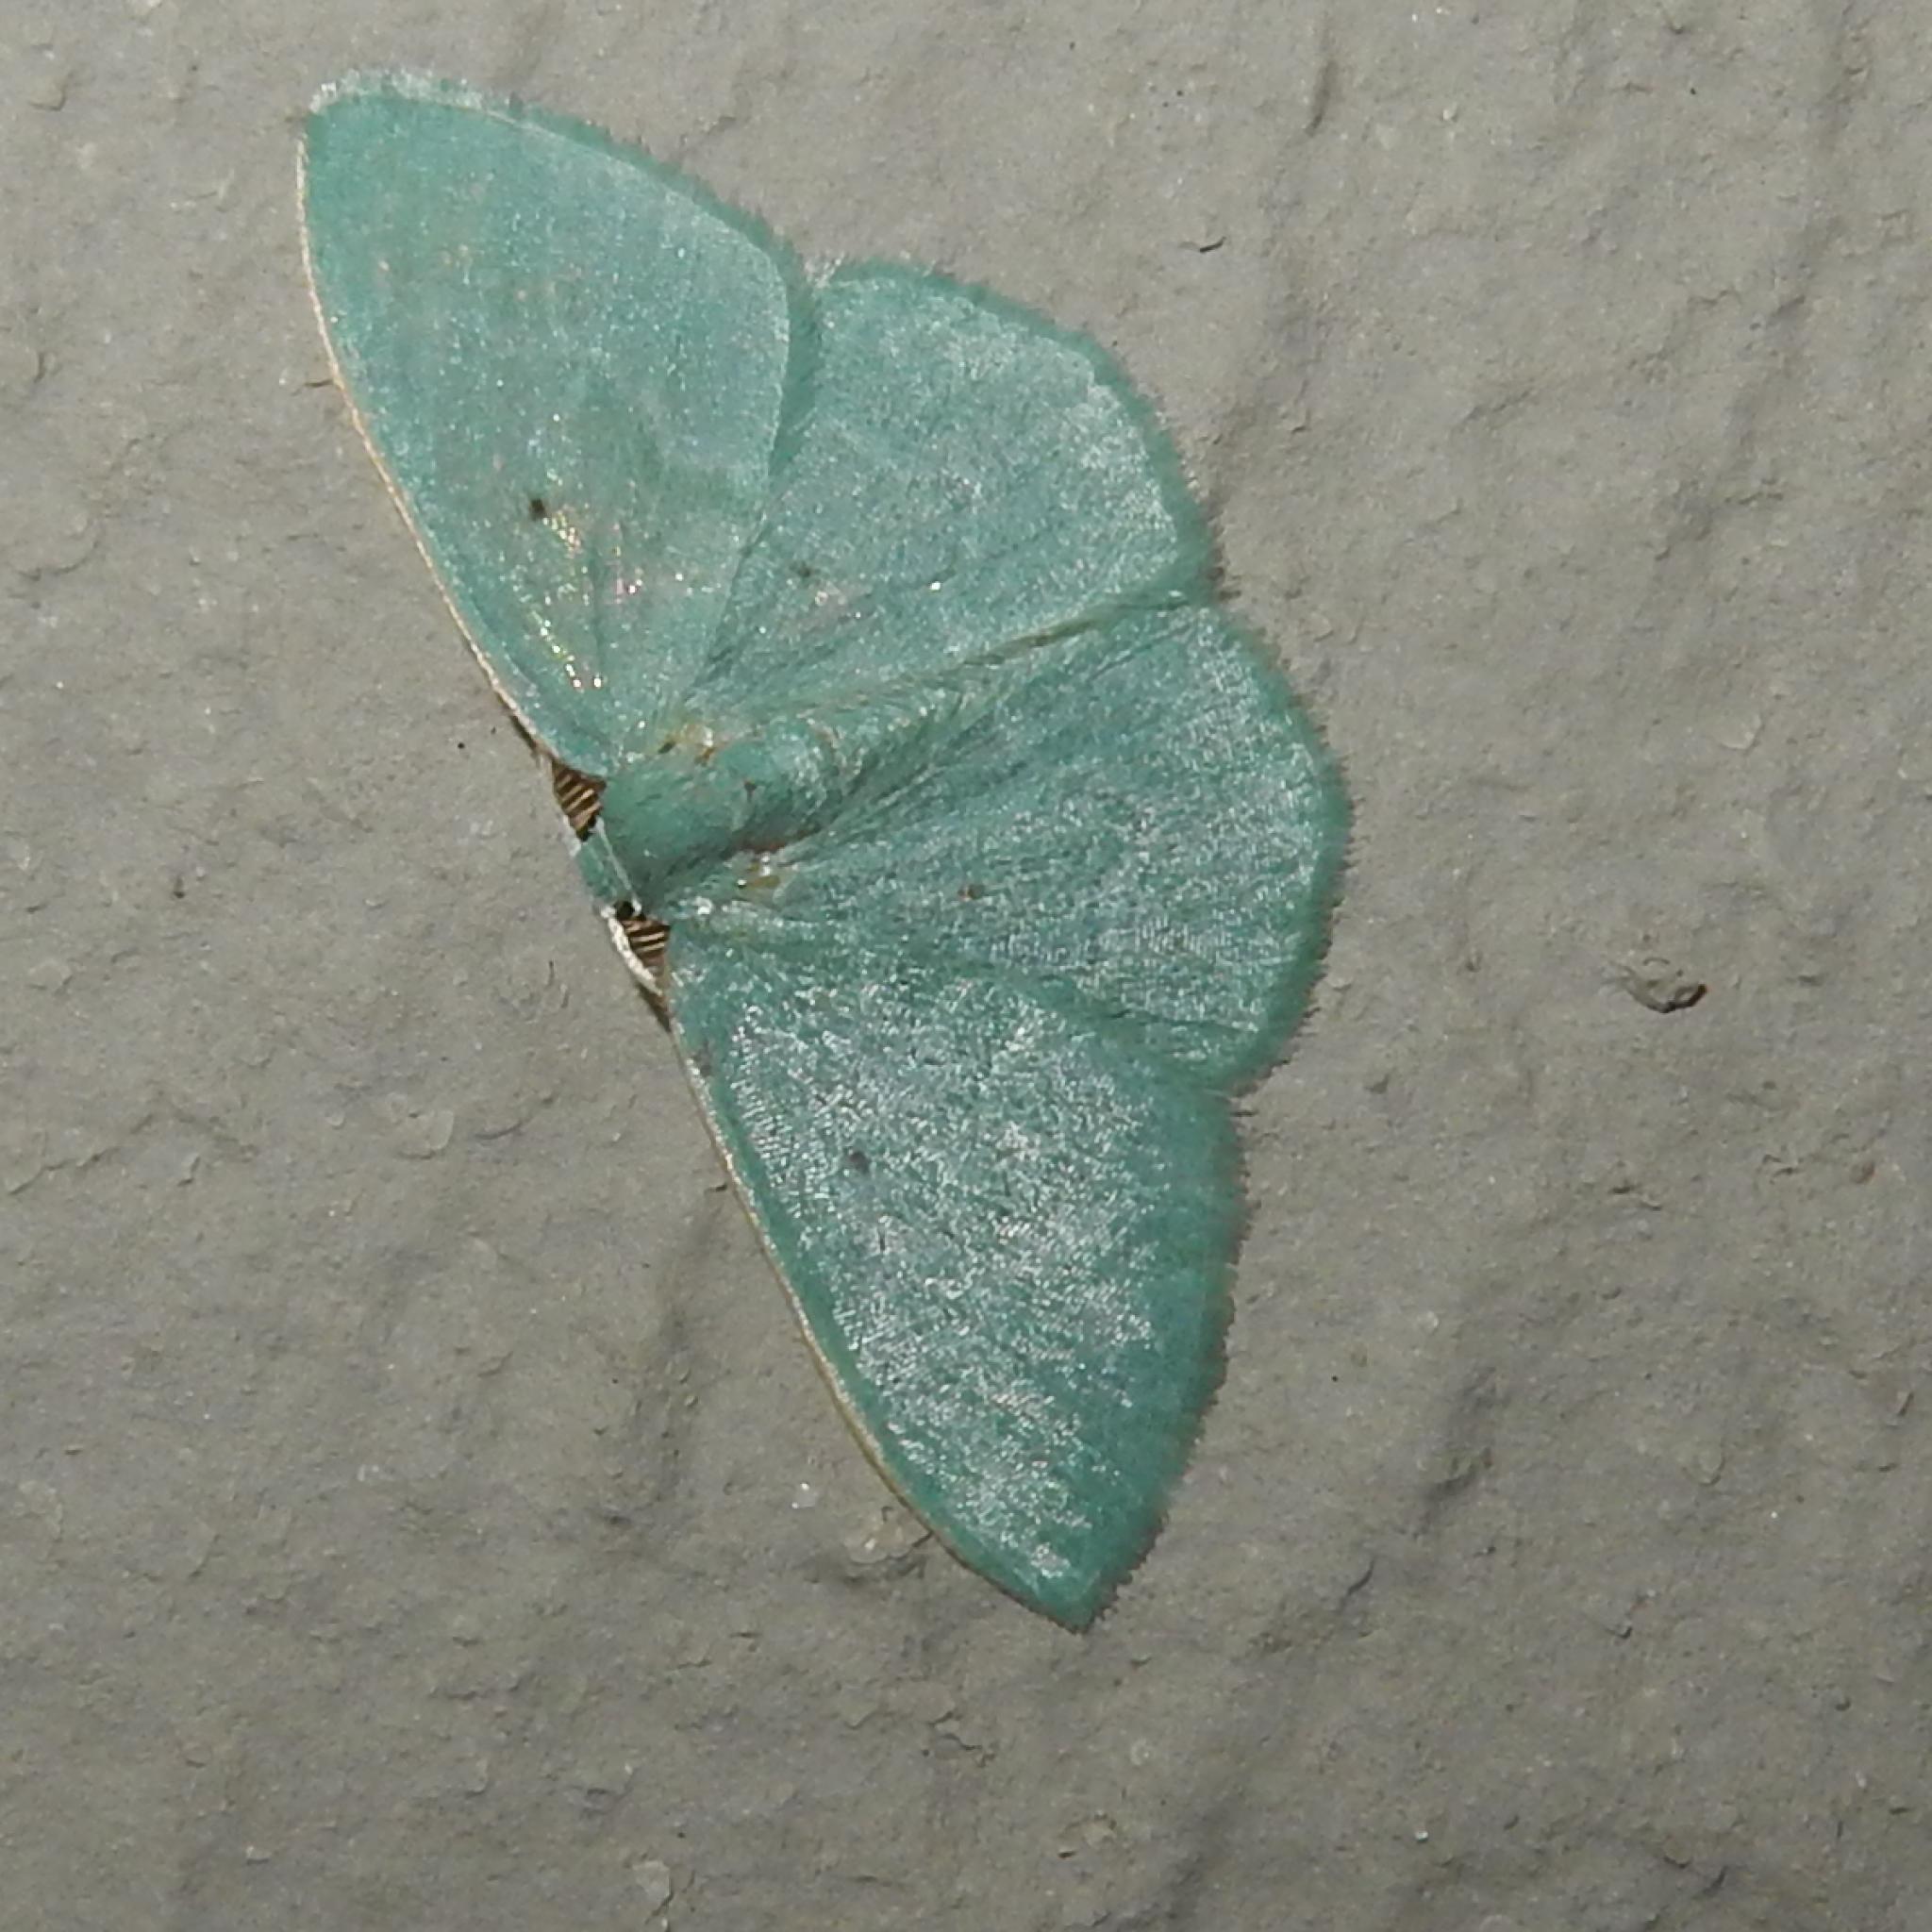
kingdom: Animalia
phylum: Arthropoda
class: Insecta
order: Lepidoptera
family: Geometridae
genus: Comostolopsis
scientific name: Comostolopsis capensis
